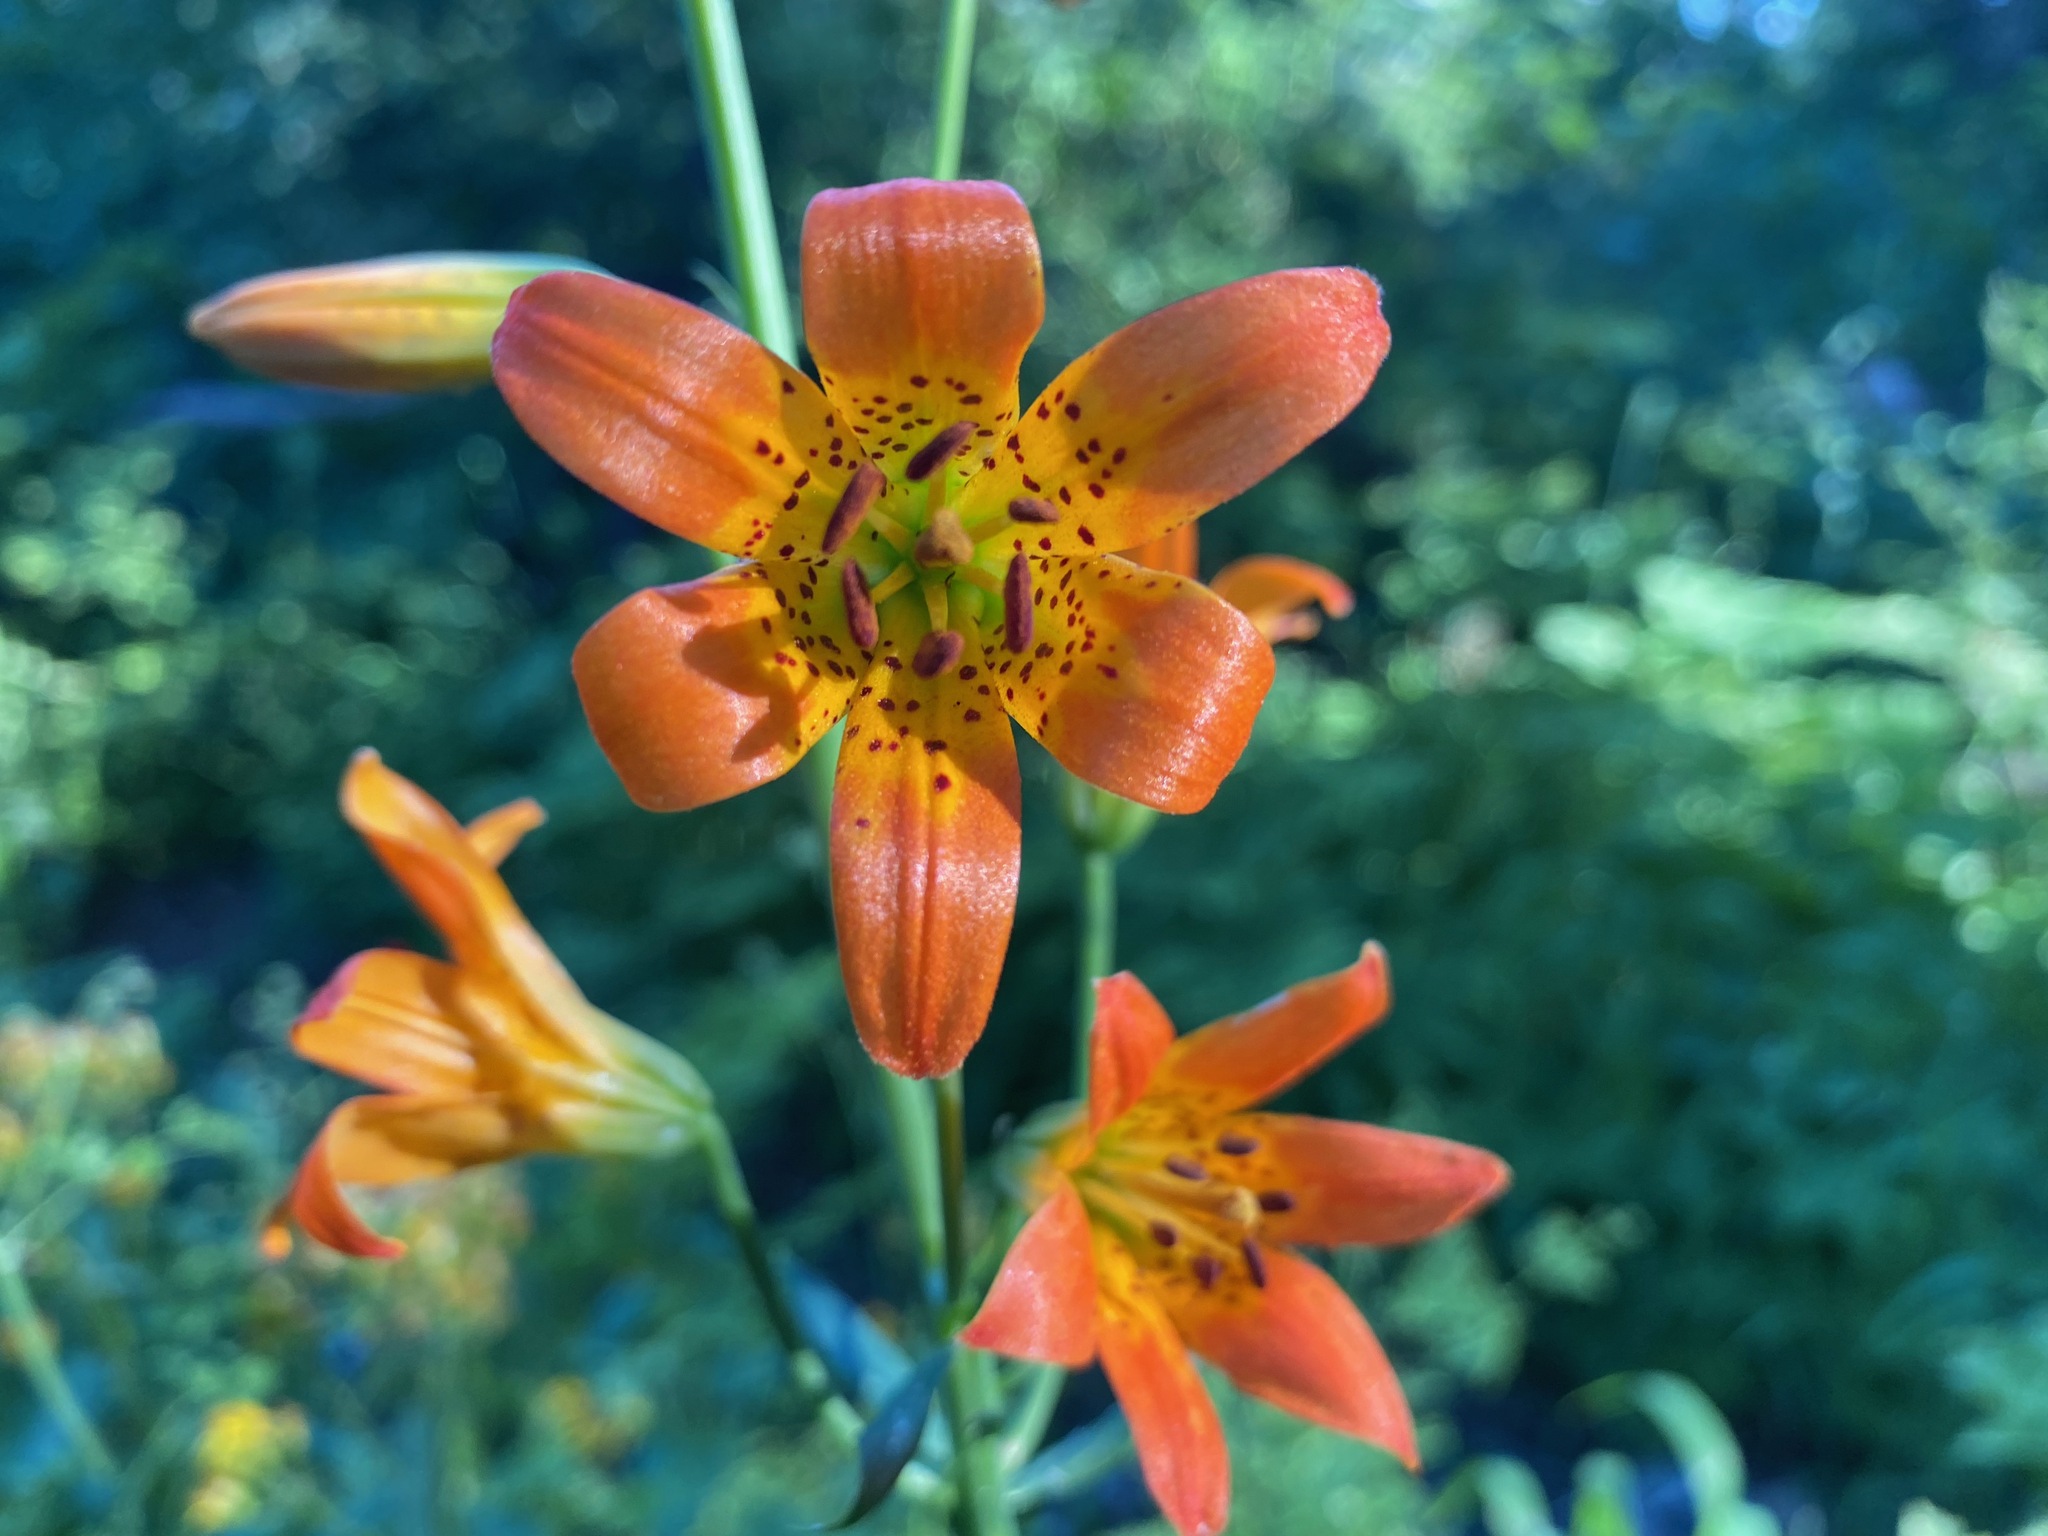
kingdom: Plantae
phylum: Tracheophyta
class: Liliopsida
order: Liliales
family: Liliaceae
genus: Lilium
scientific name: Lilium parvum
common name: Alpine lily
